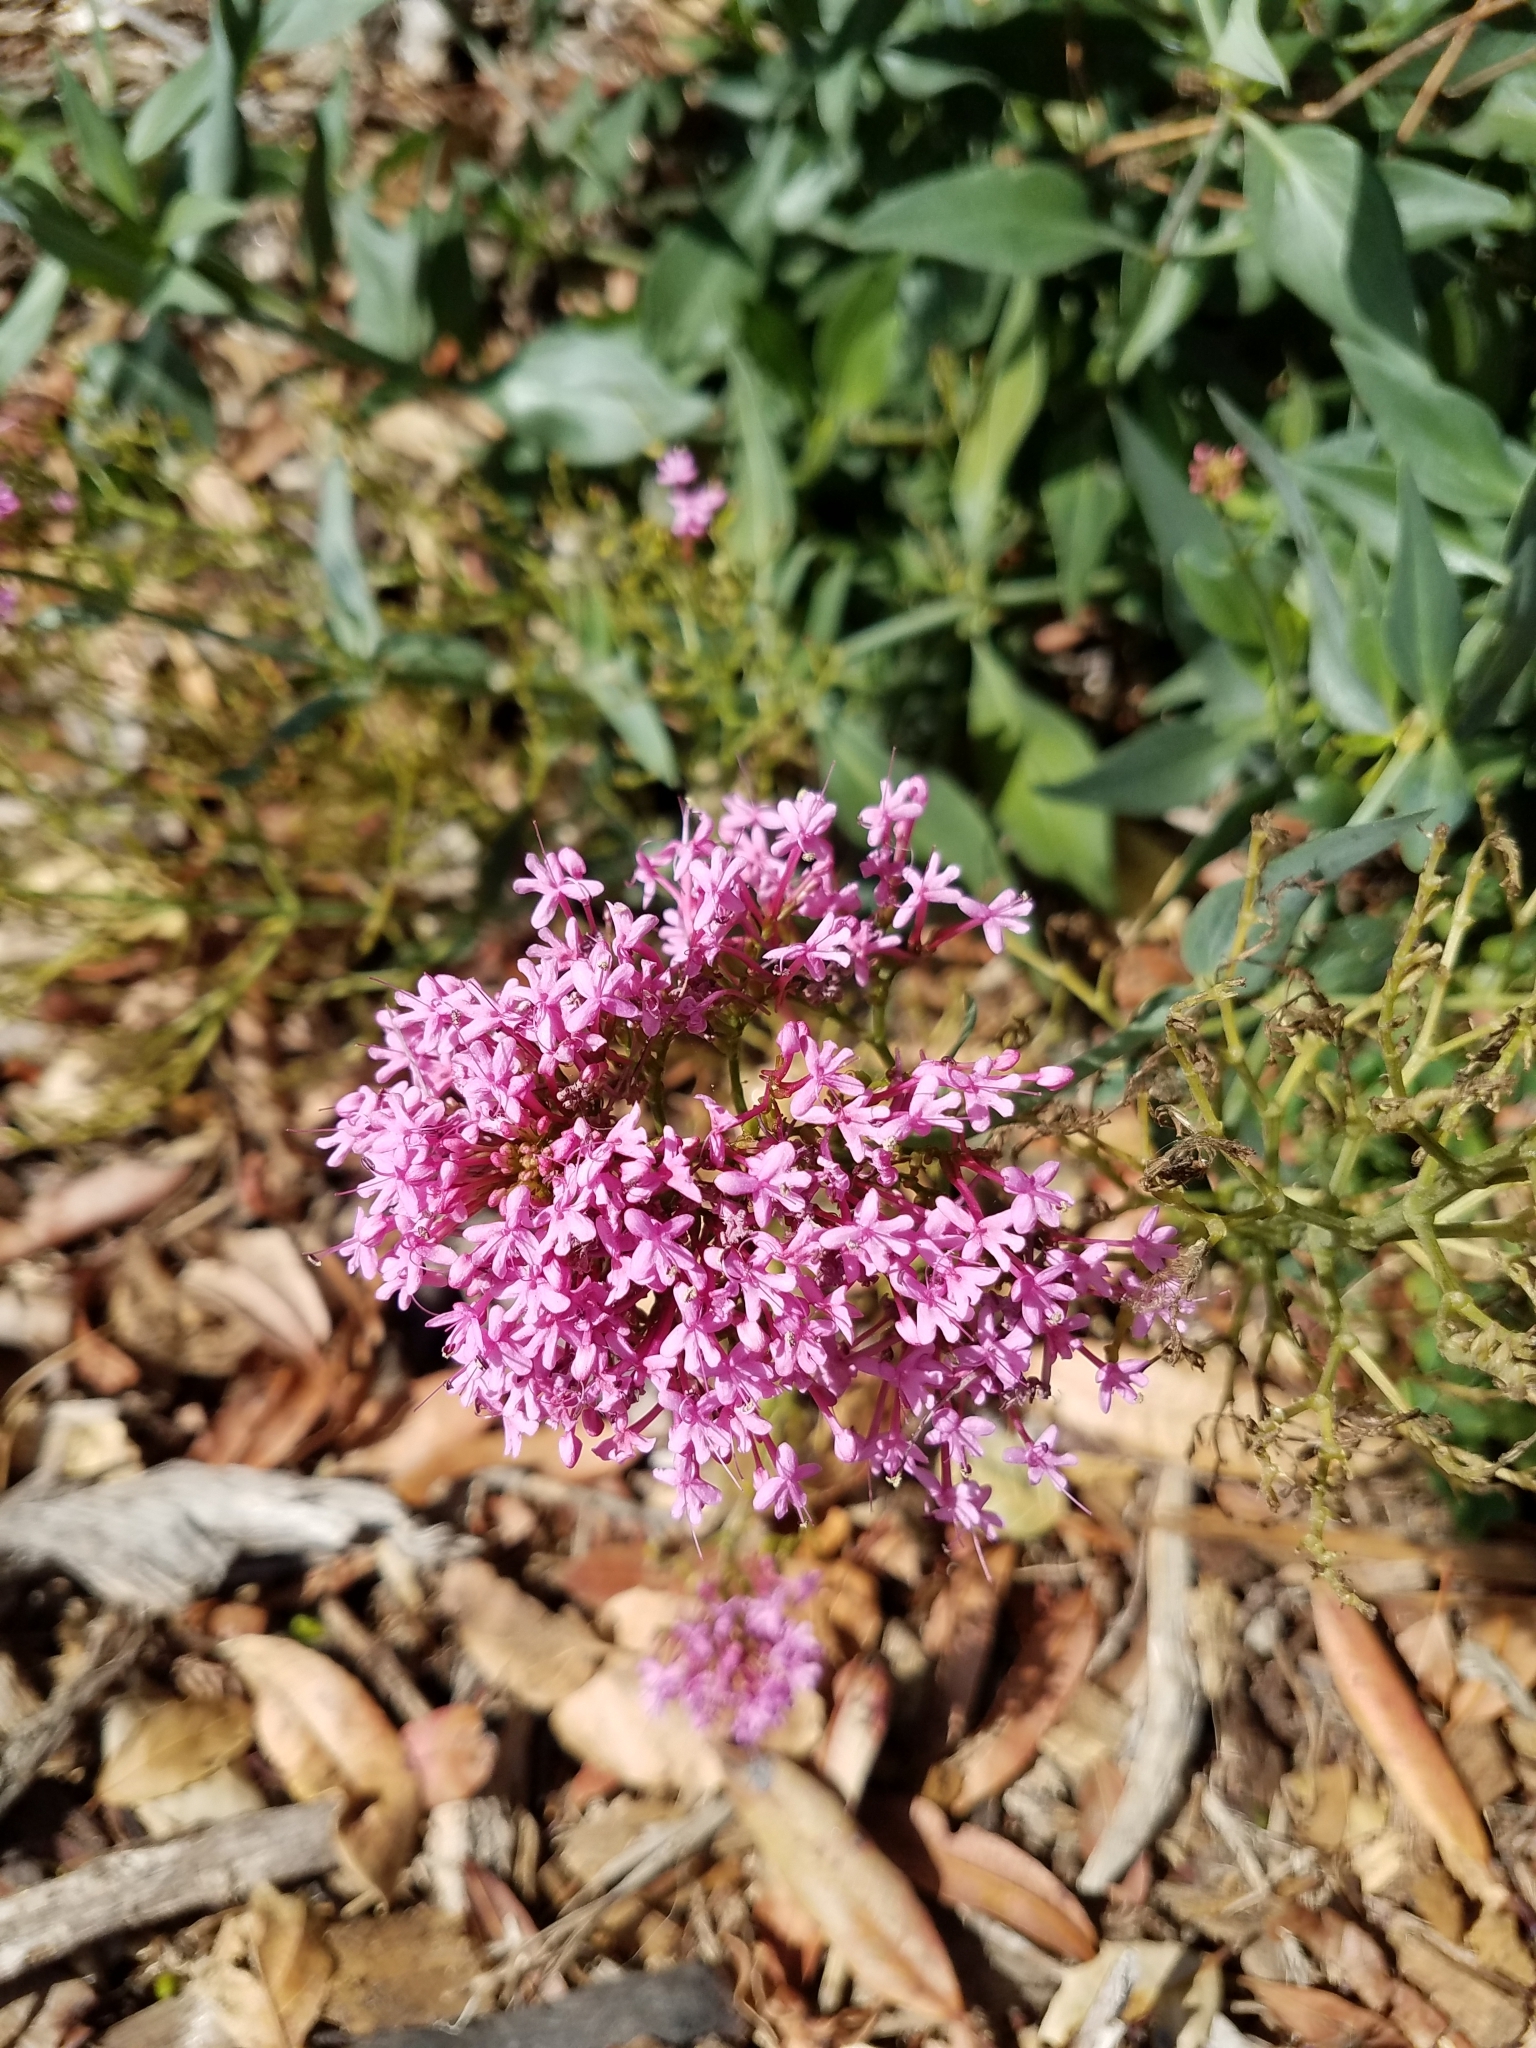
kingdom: Plantae
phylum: Tracheophyta
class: Magnoliopsida
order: Dipsacales
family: Caprifoliaceae
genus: Centranthus
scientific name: Centranthus ruber
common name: Red valerian
